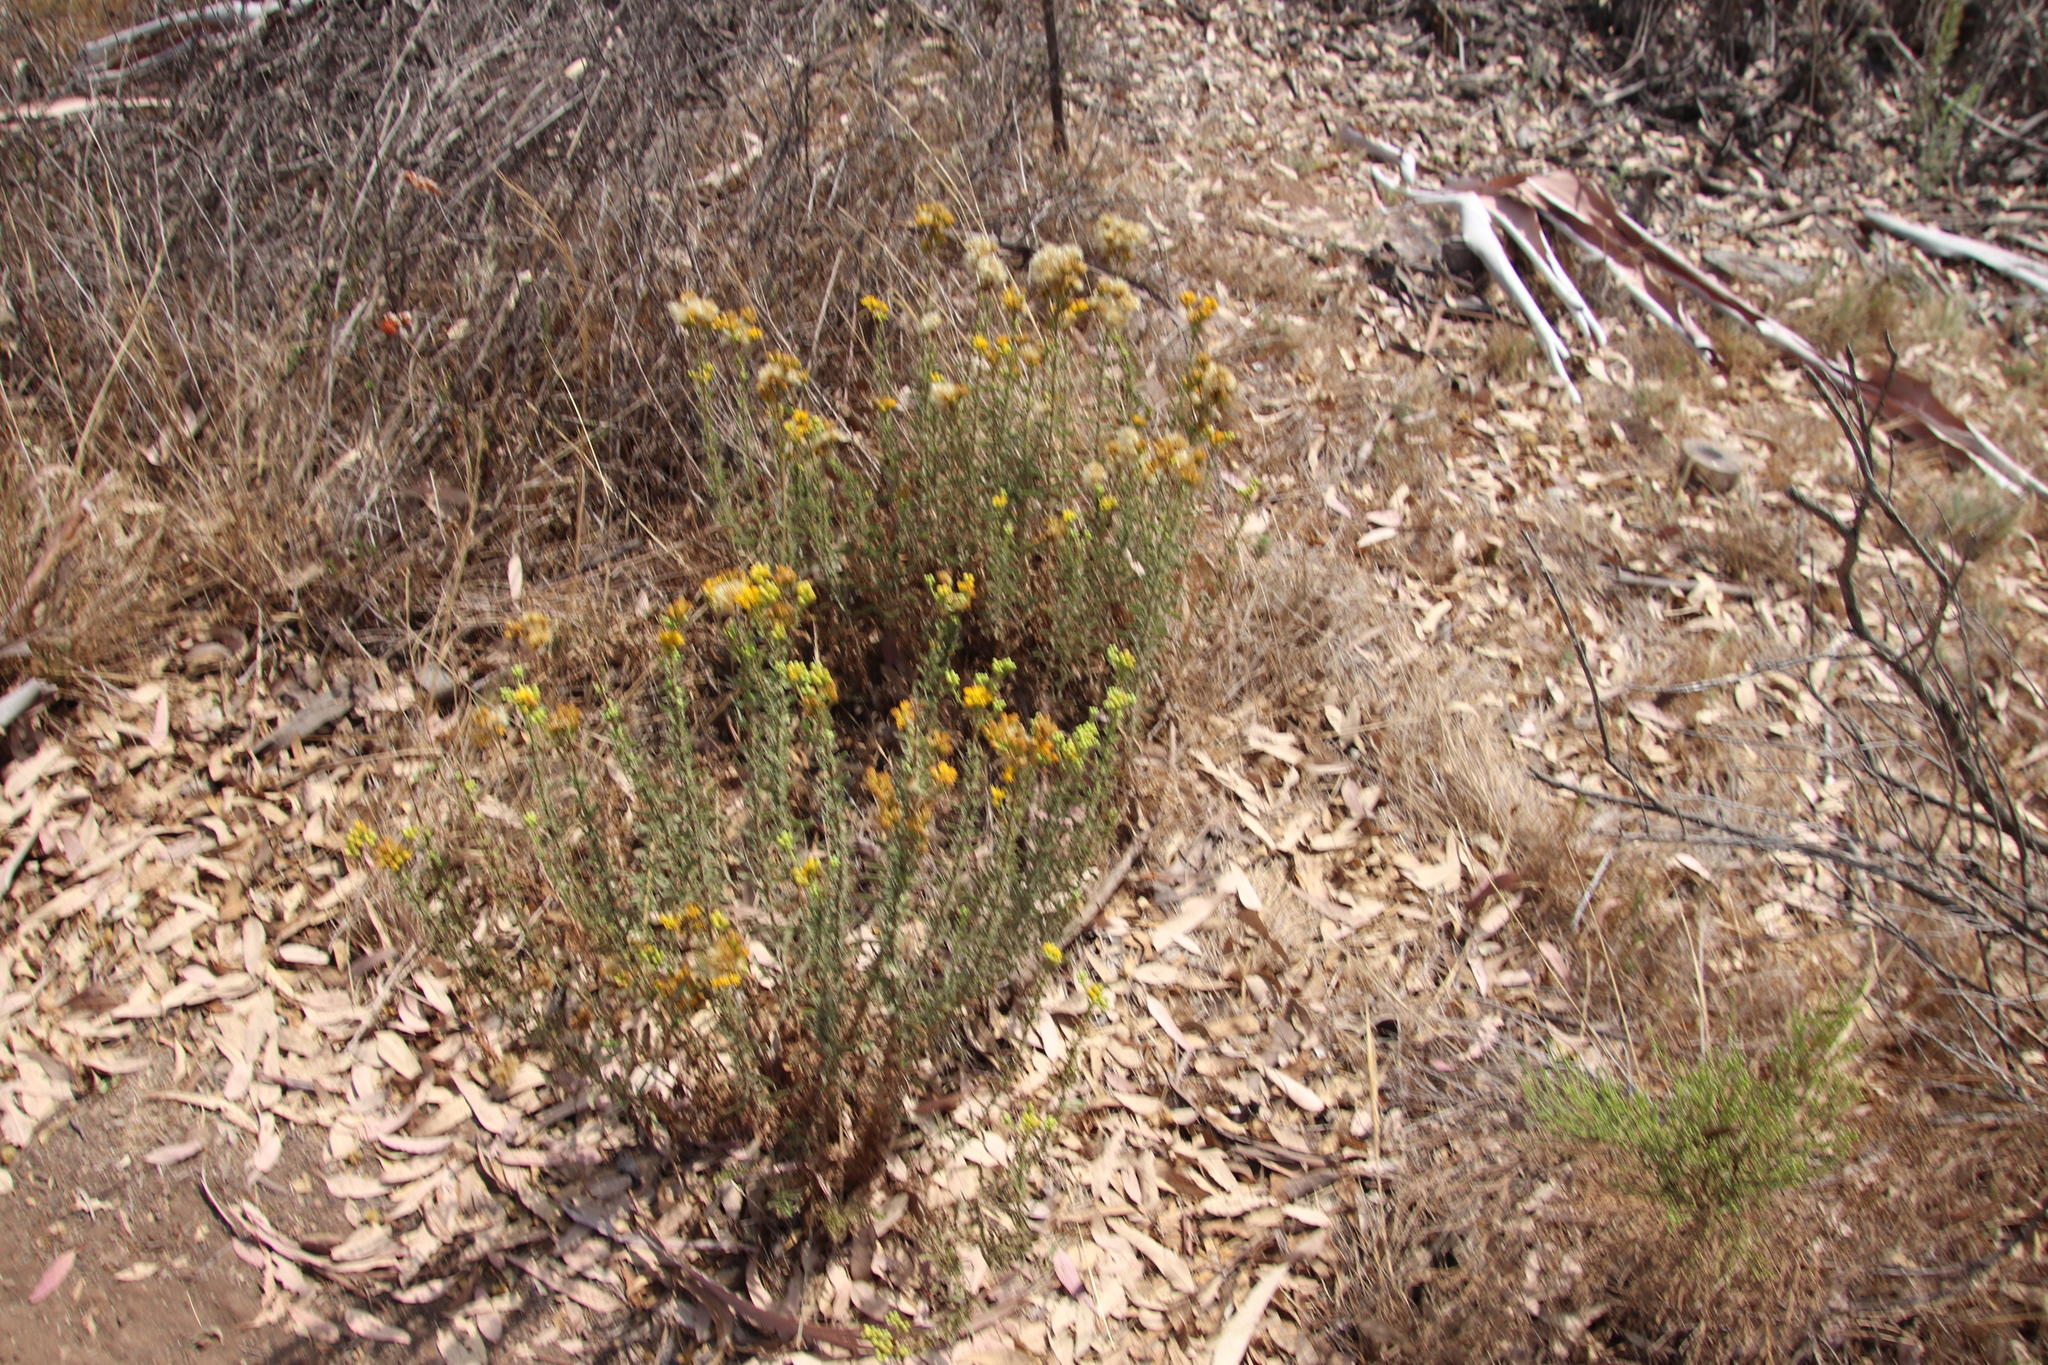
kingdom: Plantae
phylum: Tracheophyta
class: Magnoliopsida
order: Asterales
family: Asteraceae
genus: Isocoma
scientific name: Isocoma menziesii
